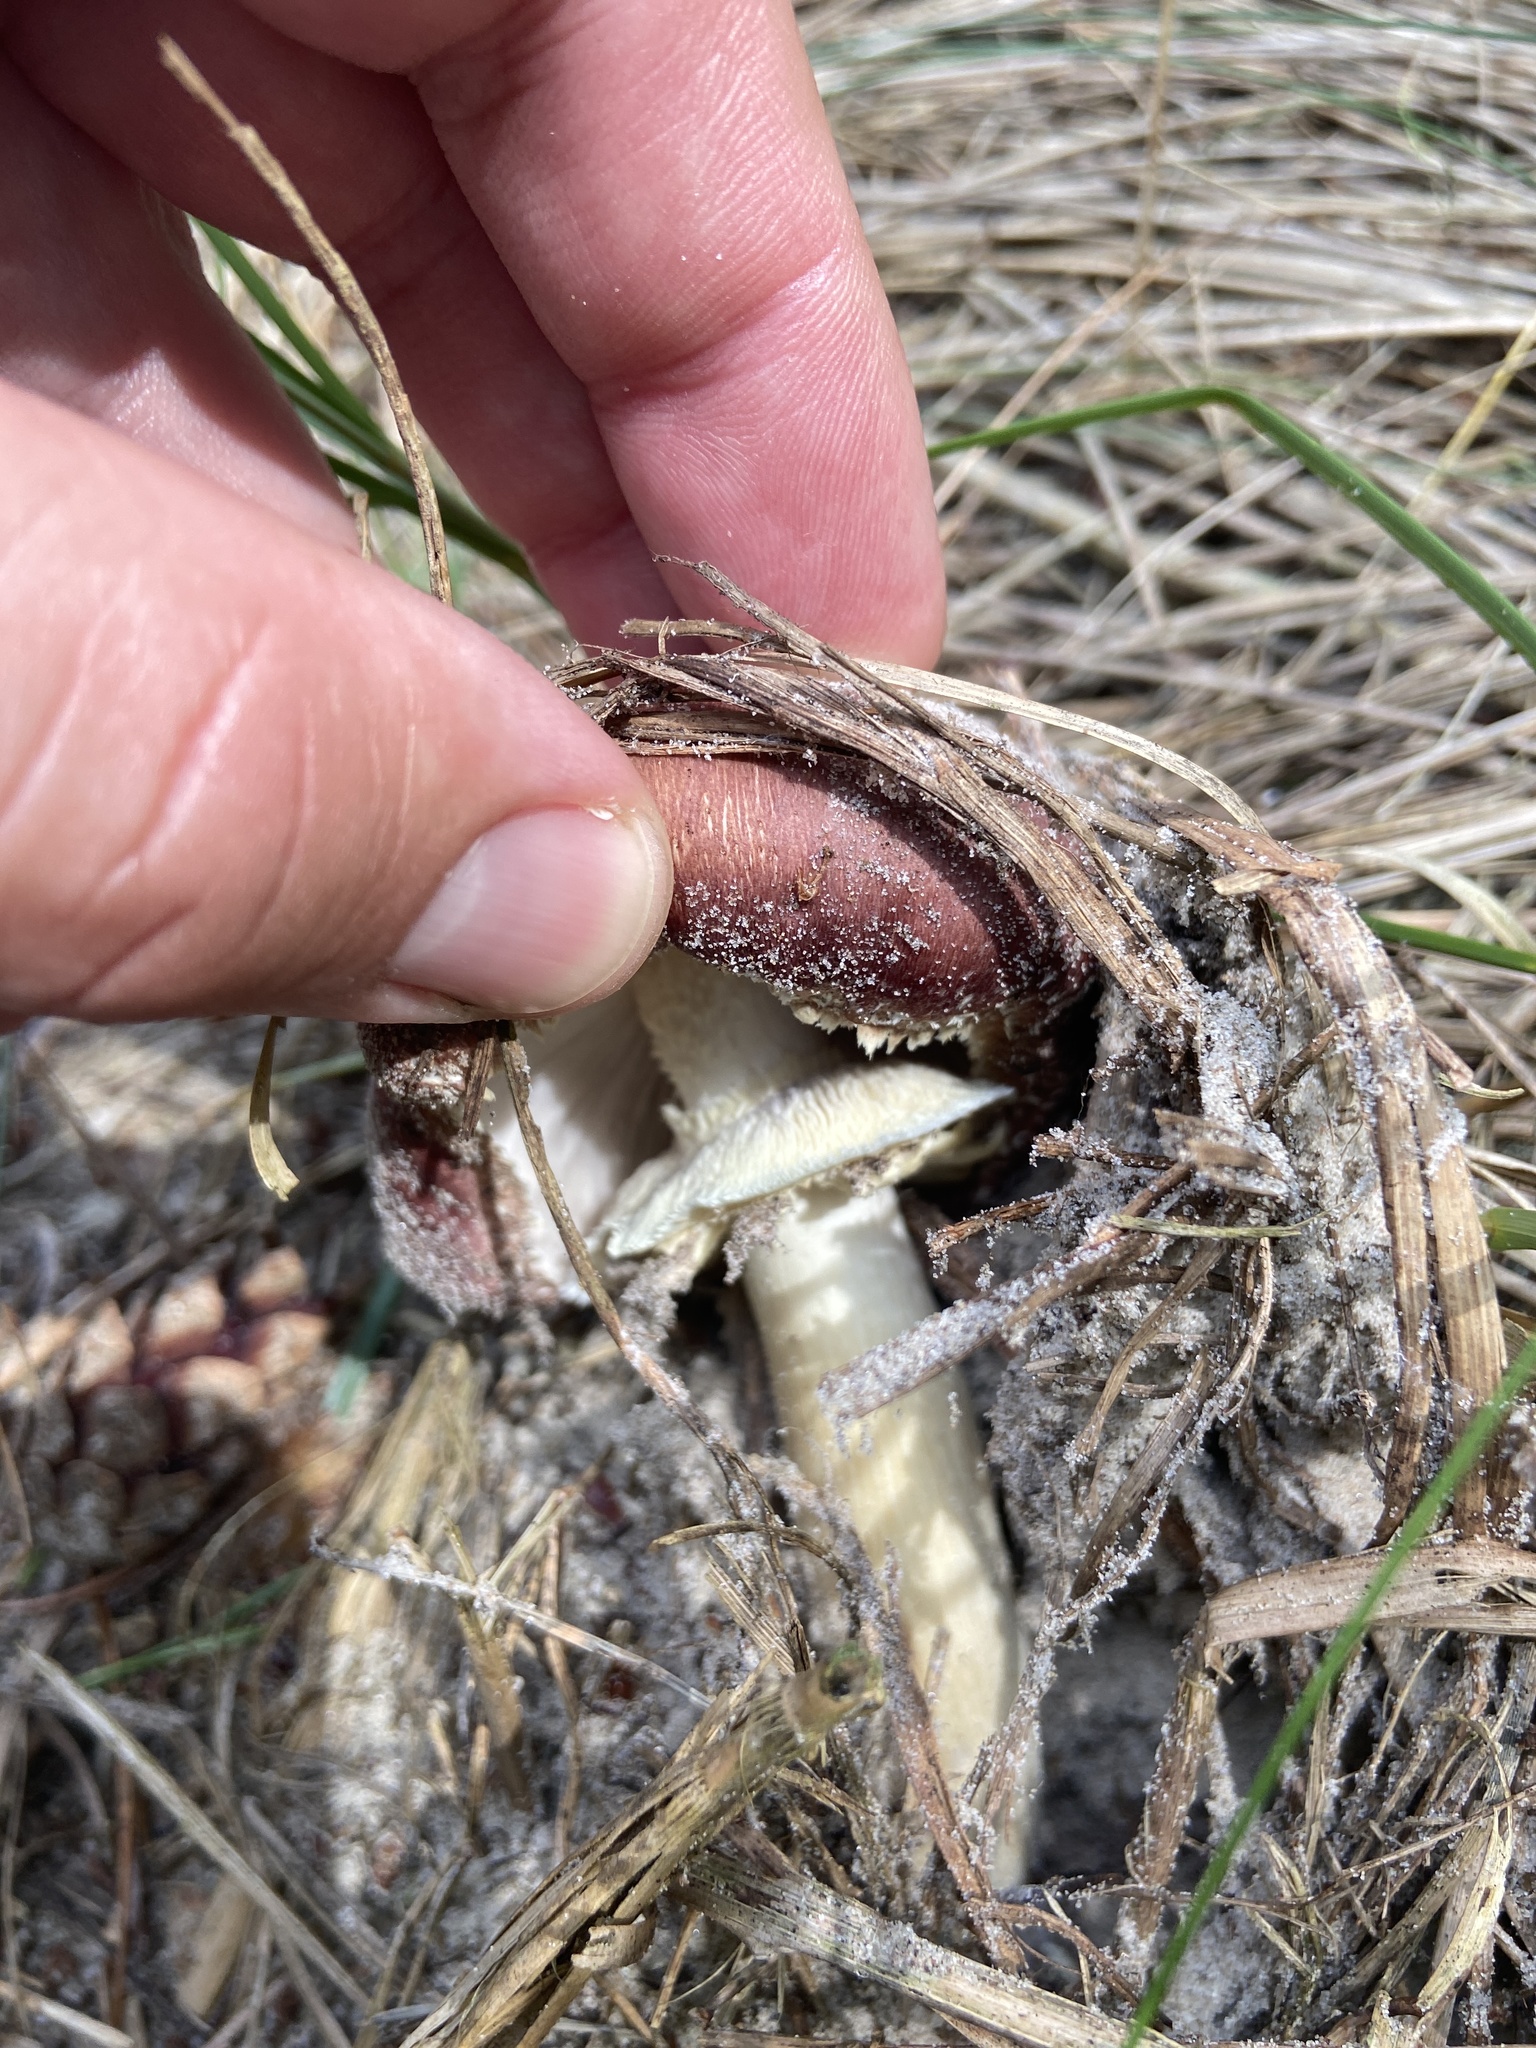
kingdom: Fungi
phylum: Basidiomycota
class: Agaricomycetes
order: Agaricales
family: Strophariaceae
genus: Stropharia
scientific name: Stropharia rugosoannulata
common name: Wine roundhead
